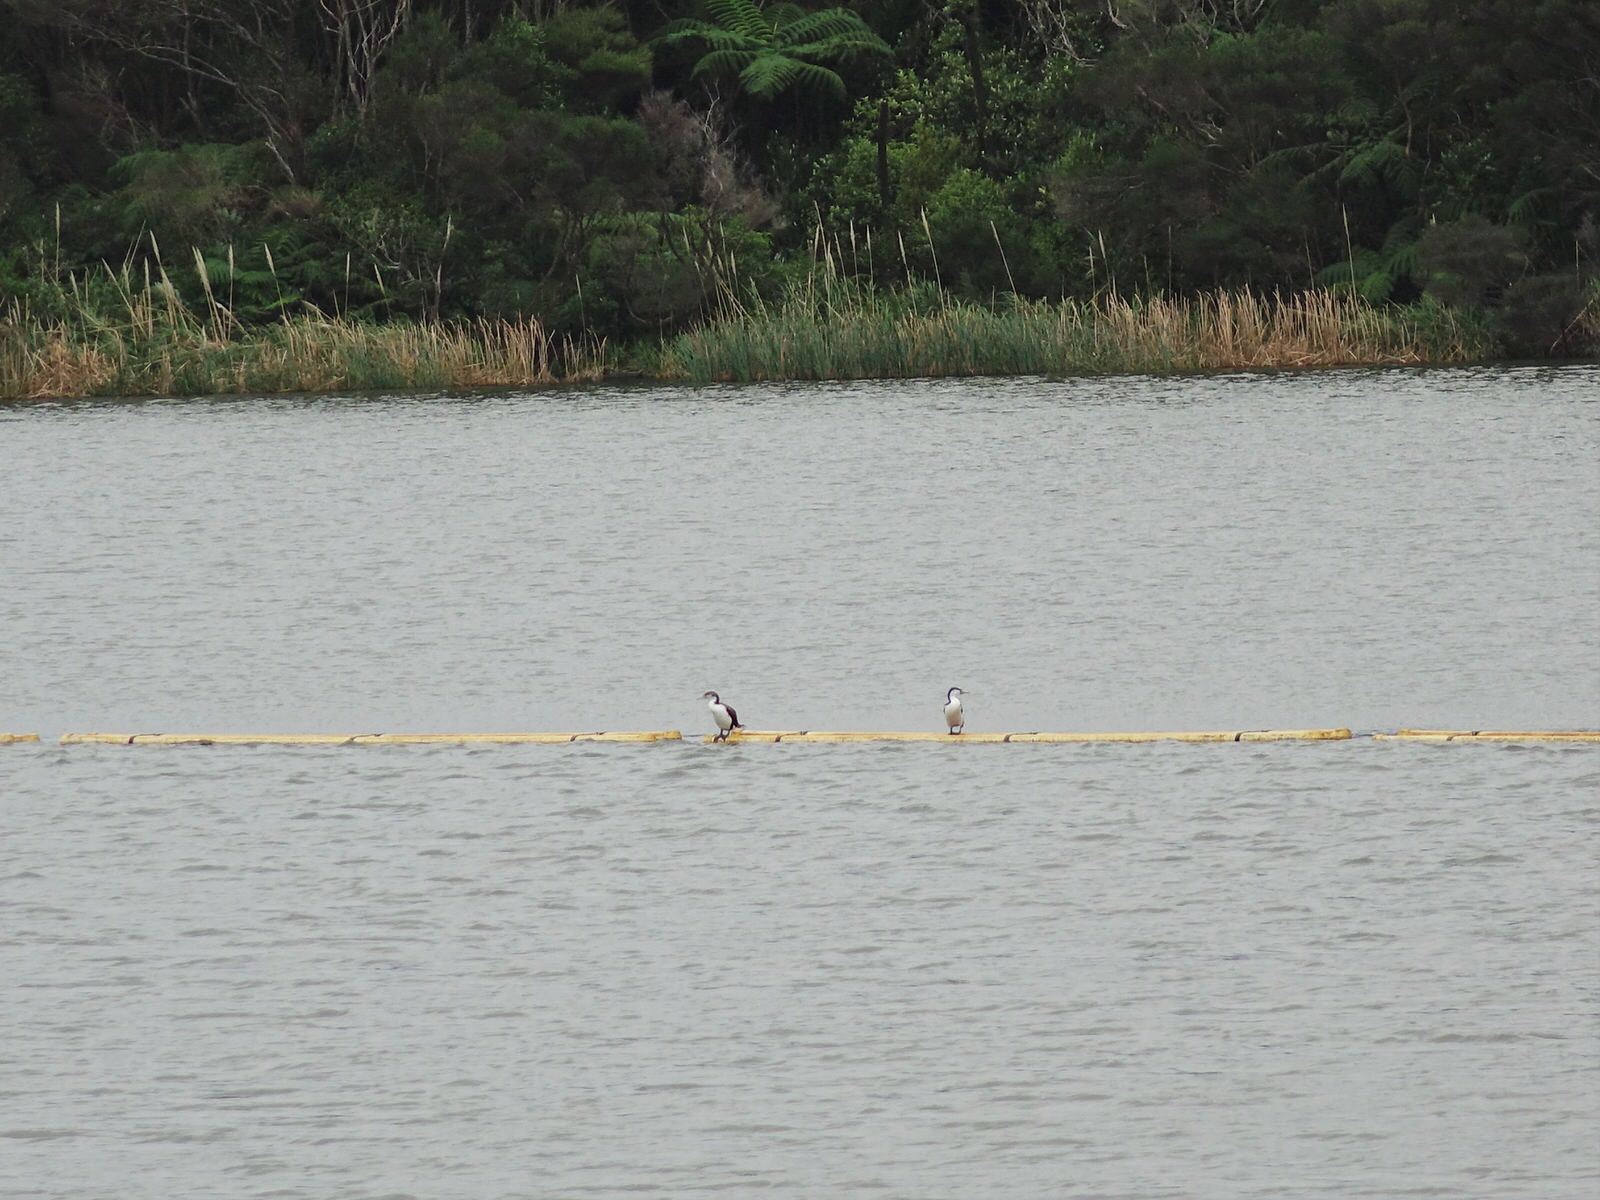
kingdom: Animalia
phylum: Chordata
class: Aves
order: Suliformes
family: Phalacrocoracidae
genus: Phalacrocorax
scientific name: Phalacrocorax varius
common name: Pied cormorant
